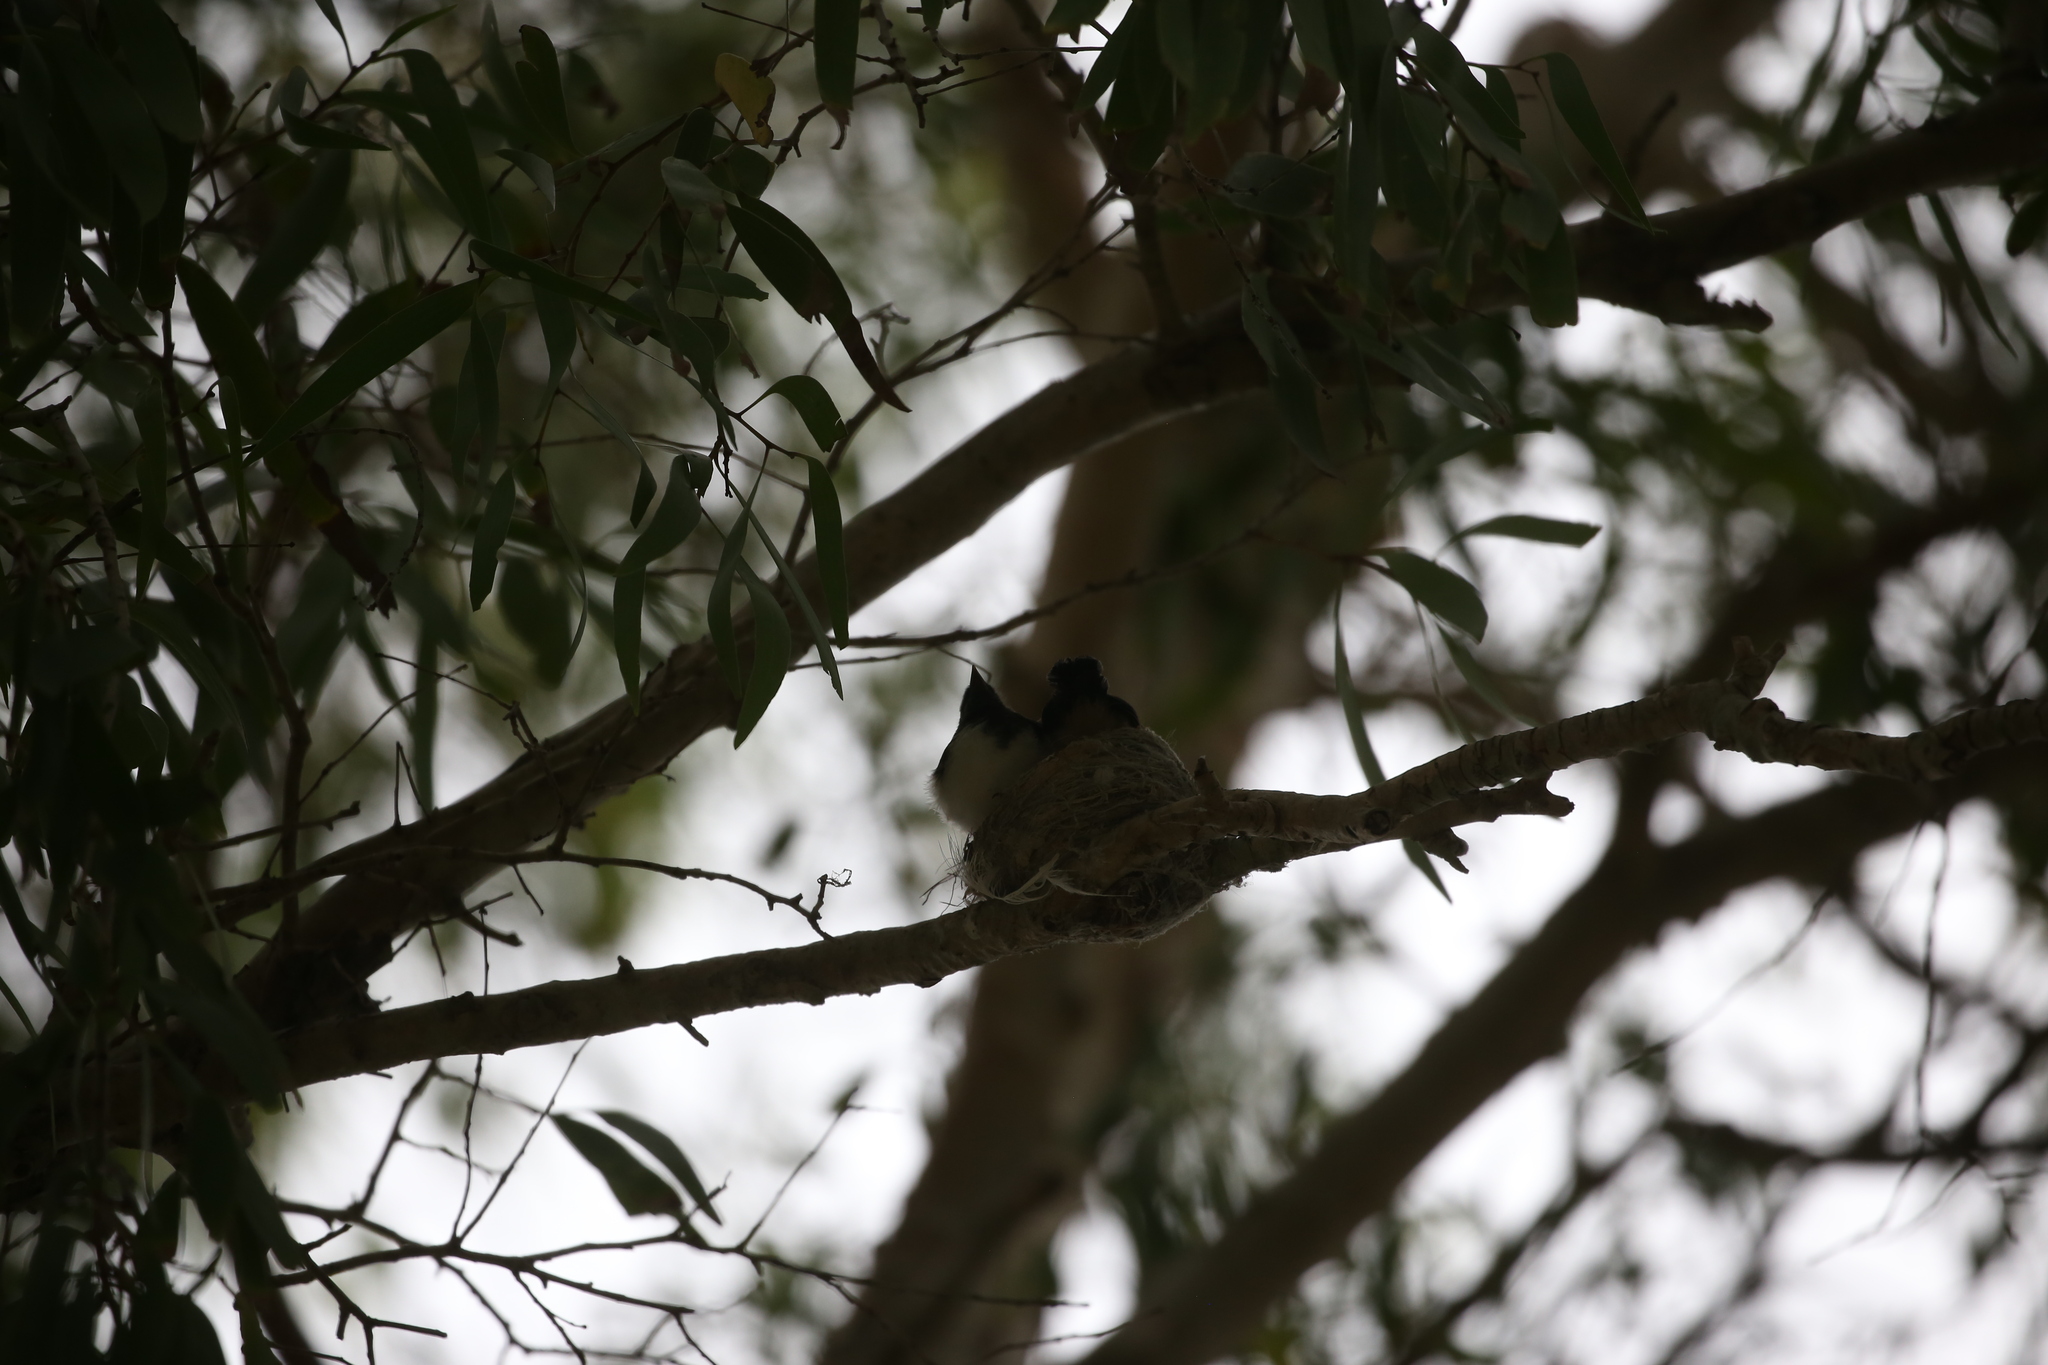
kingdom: Animalia
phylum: Chordata
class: Aves
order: Passeriformes
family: Rhipiduridae
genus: Rhipidura
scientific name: Rhipidura leucophrys
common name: Willie wagtail
